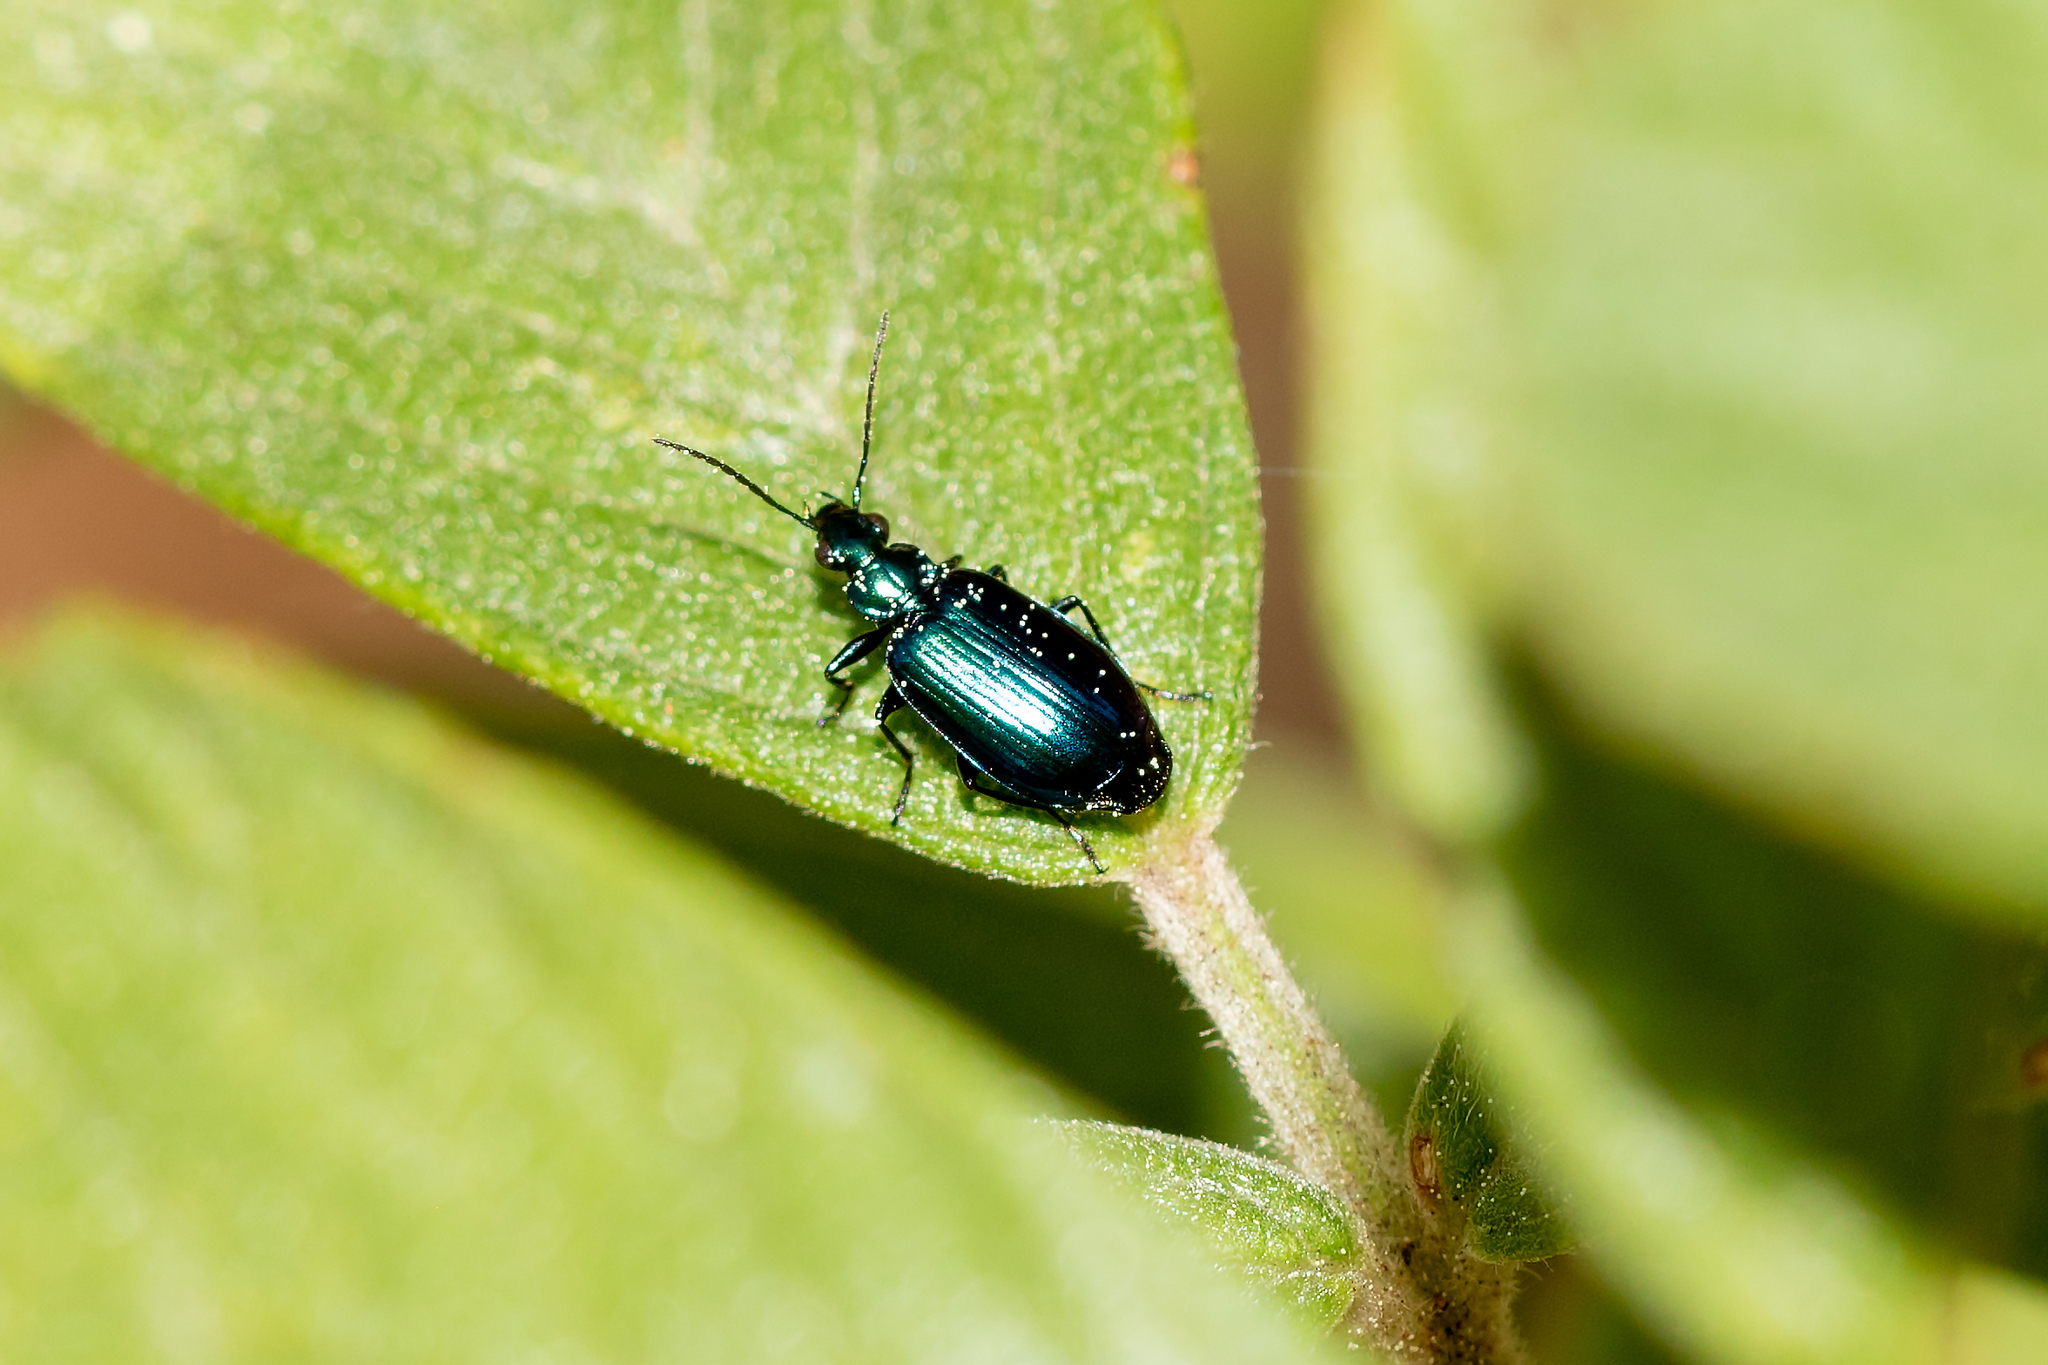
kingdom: Animalia
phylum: Arthropoda
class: Insecta
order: Coleoptera
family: Carabidae
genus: Lebia
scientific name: Lebia viridis
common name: Flower lebia beetle
